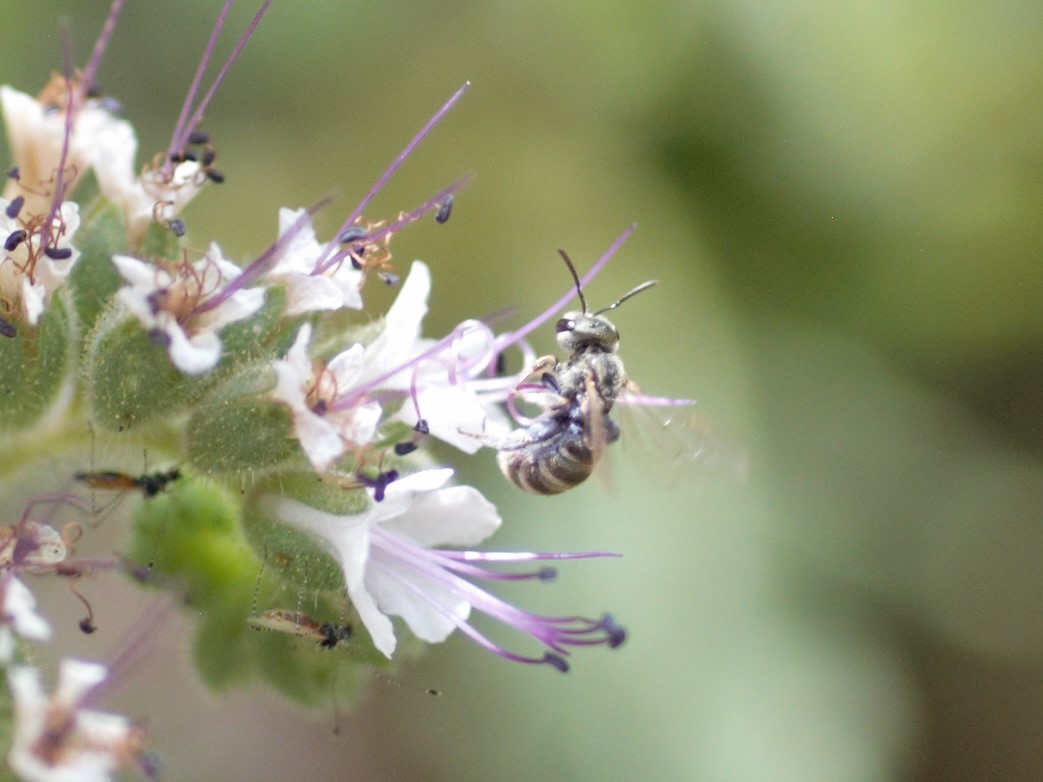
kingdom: Animalia
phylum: Arthropoda
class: Insecta
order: Hymenoptera
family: Halictidae
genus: Halictus
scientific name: Halictus tripartitus
